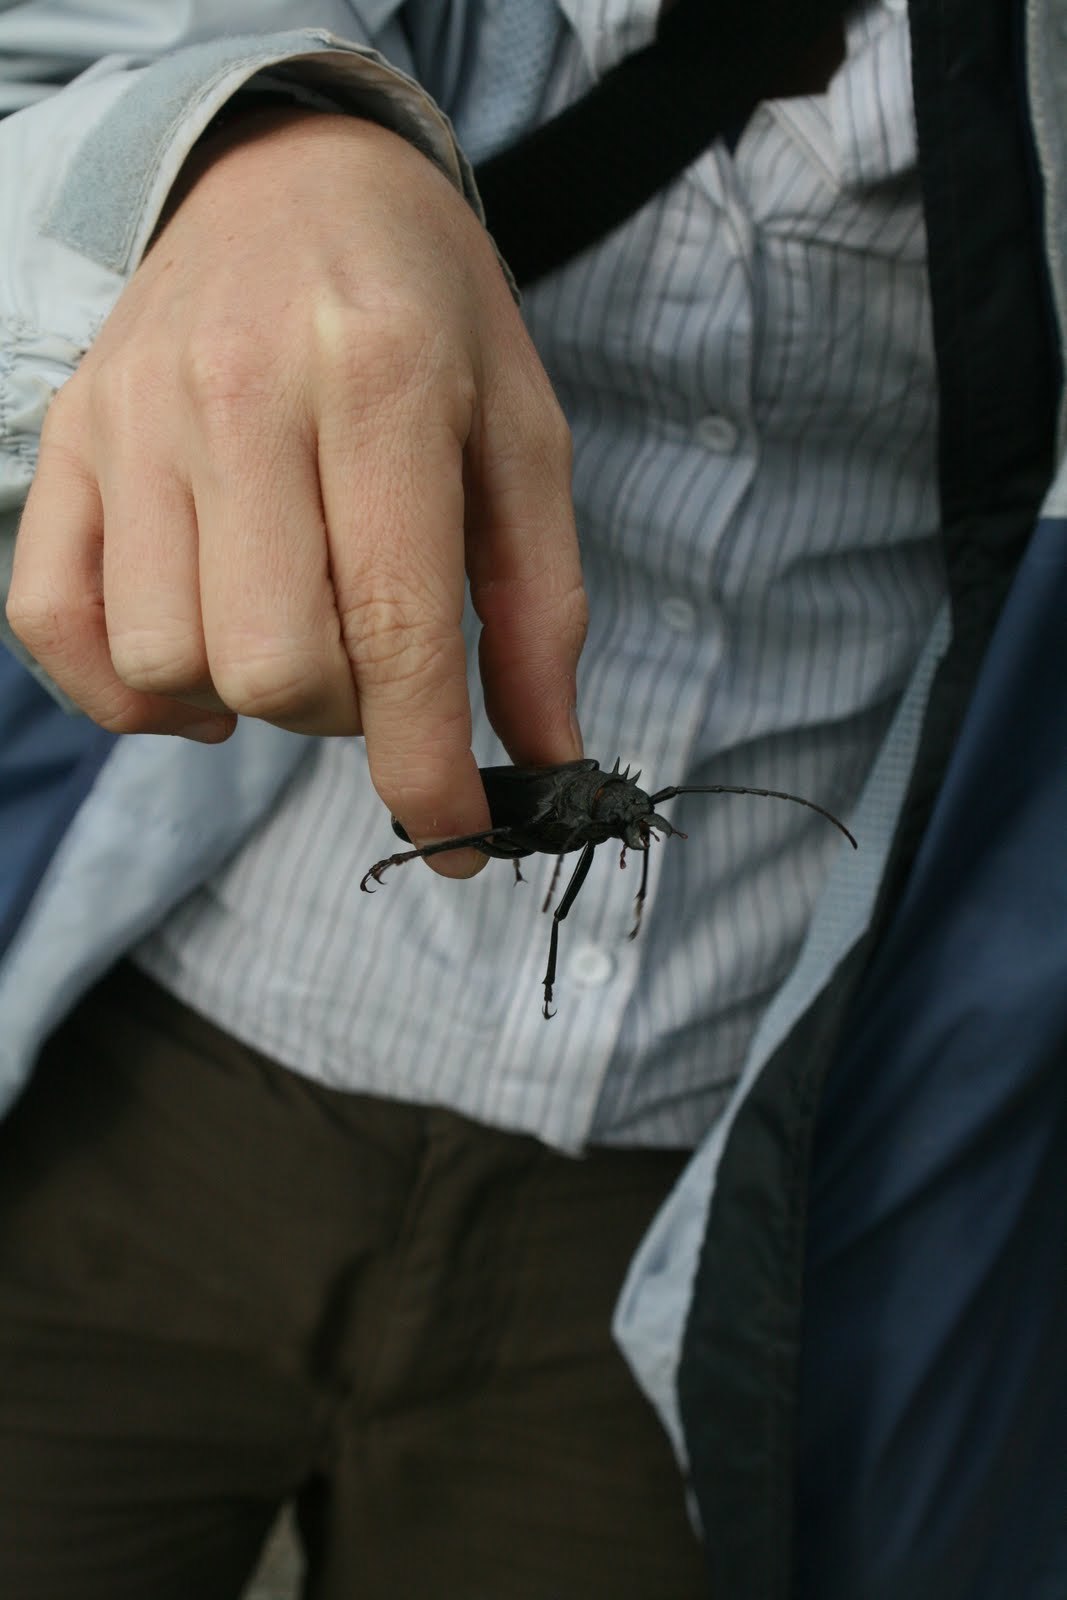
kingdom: Animalia
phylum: Arthropoda
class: Insecta
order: Coleoptera
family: Cerambycidae
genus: Psalidognathus
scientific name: Psalidognathus modestus
